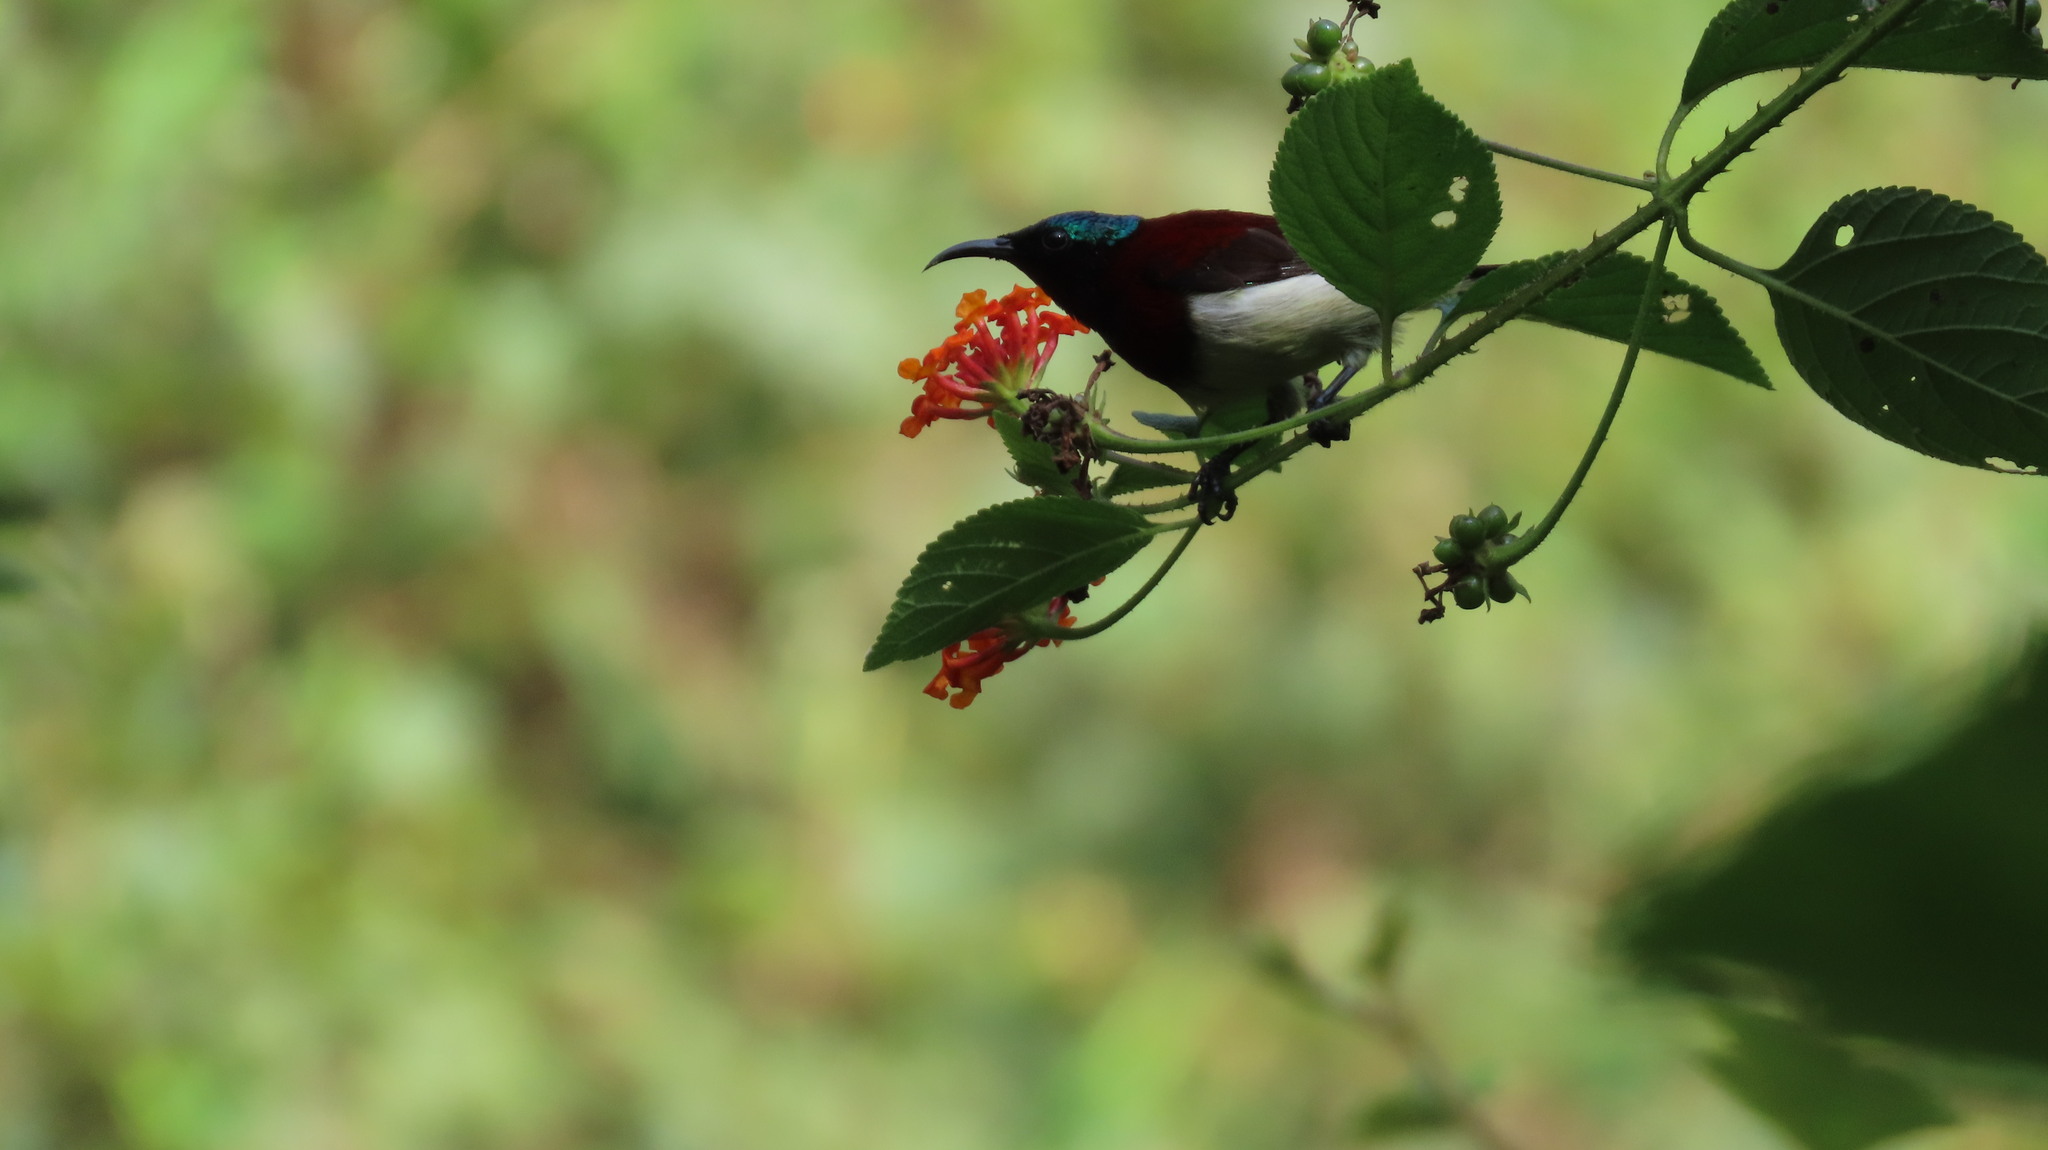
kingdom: Animalia
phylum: Chordata
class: Aves
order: Passeriformes
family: Nectariniidae
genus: Leptocoma
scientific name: Leptocoma minima
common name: Crimson-backed sunbird
